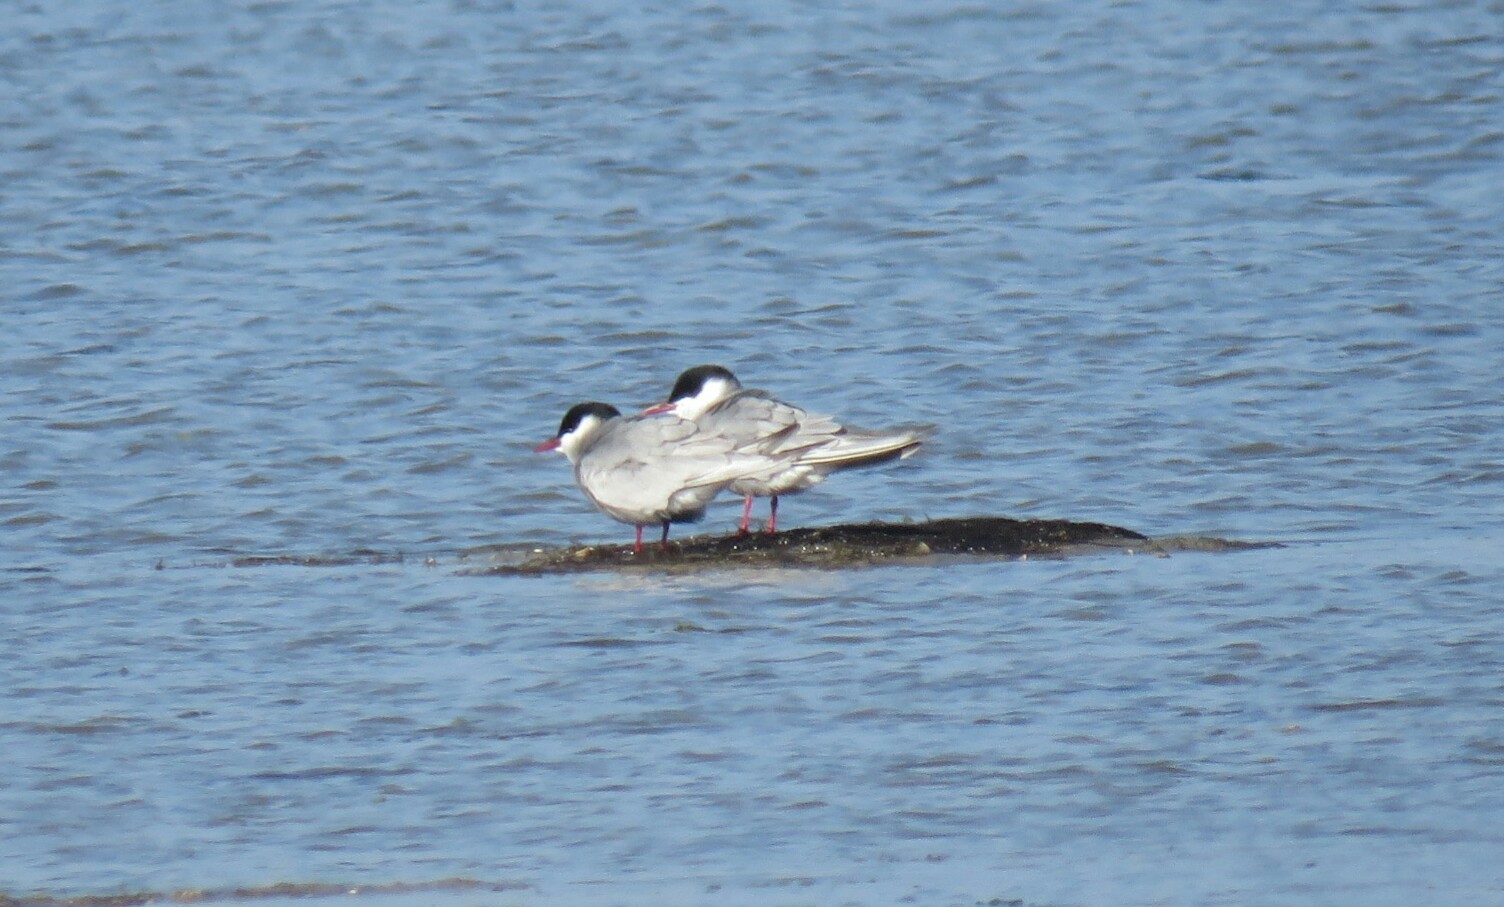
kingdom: Animalia
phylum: Chordata
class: Aves
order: Charadriiformes
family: Laridae
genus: Chlidonias
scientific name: Chlidonias hybrida
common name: Whiskered tern
